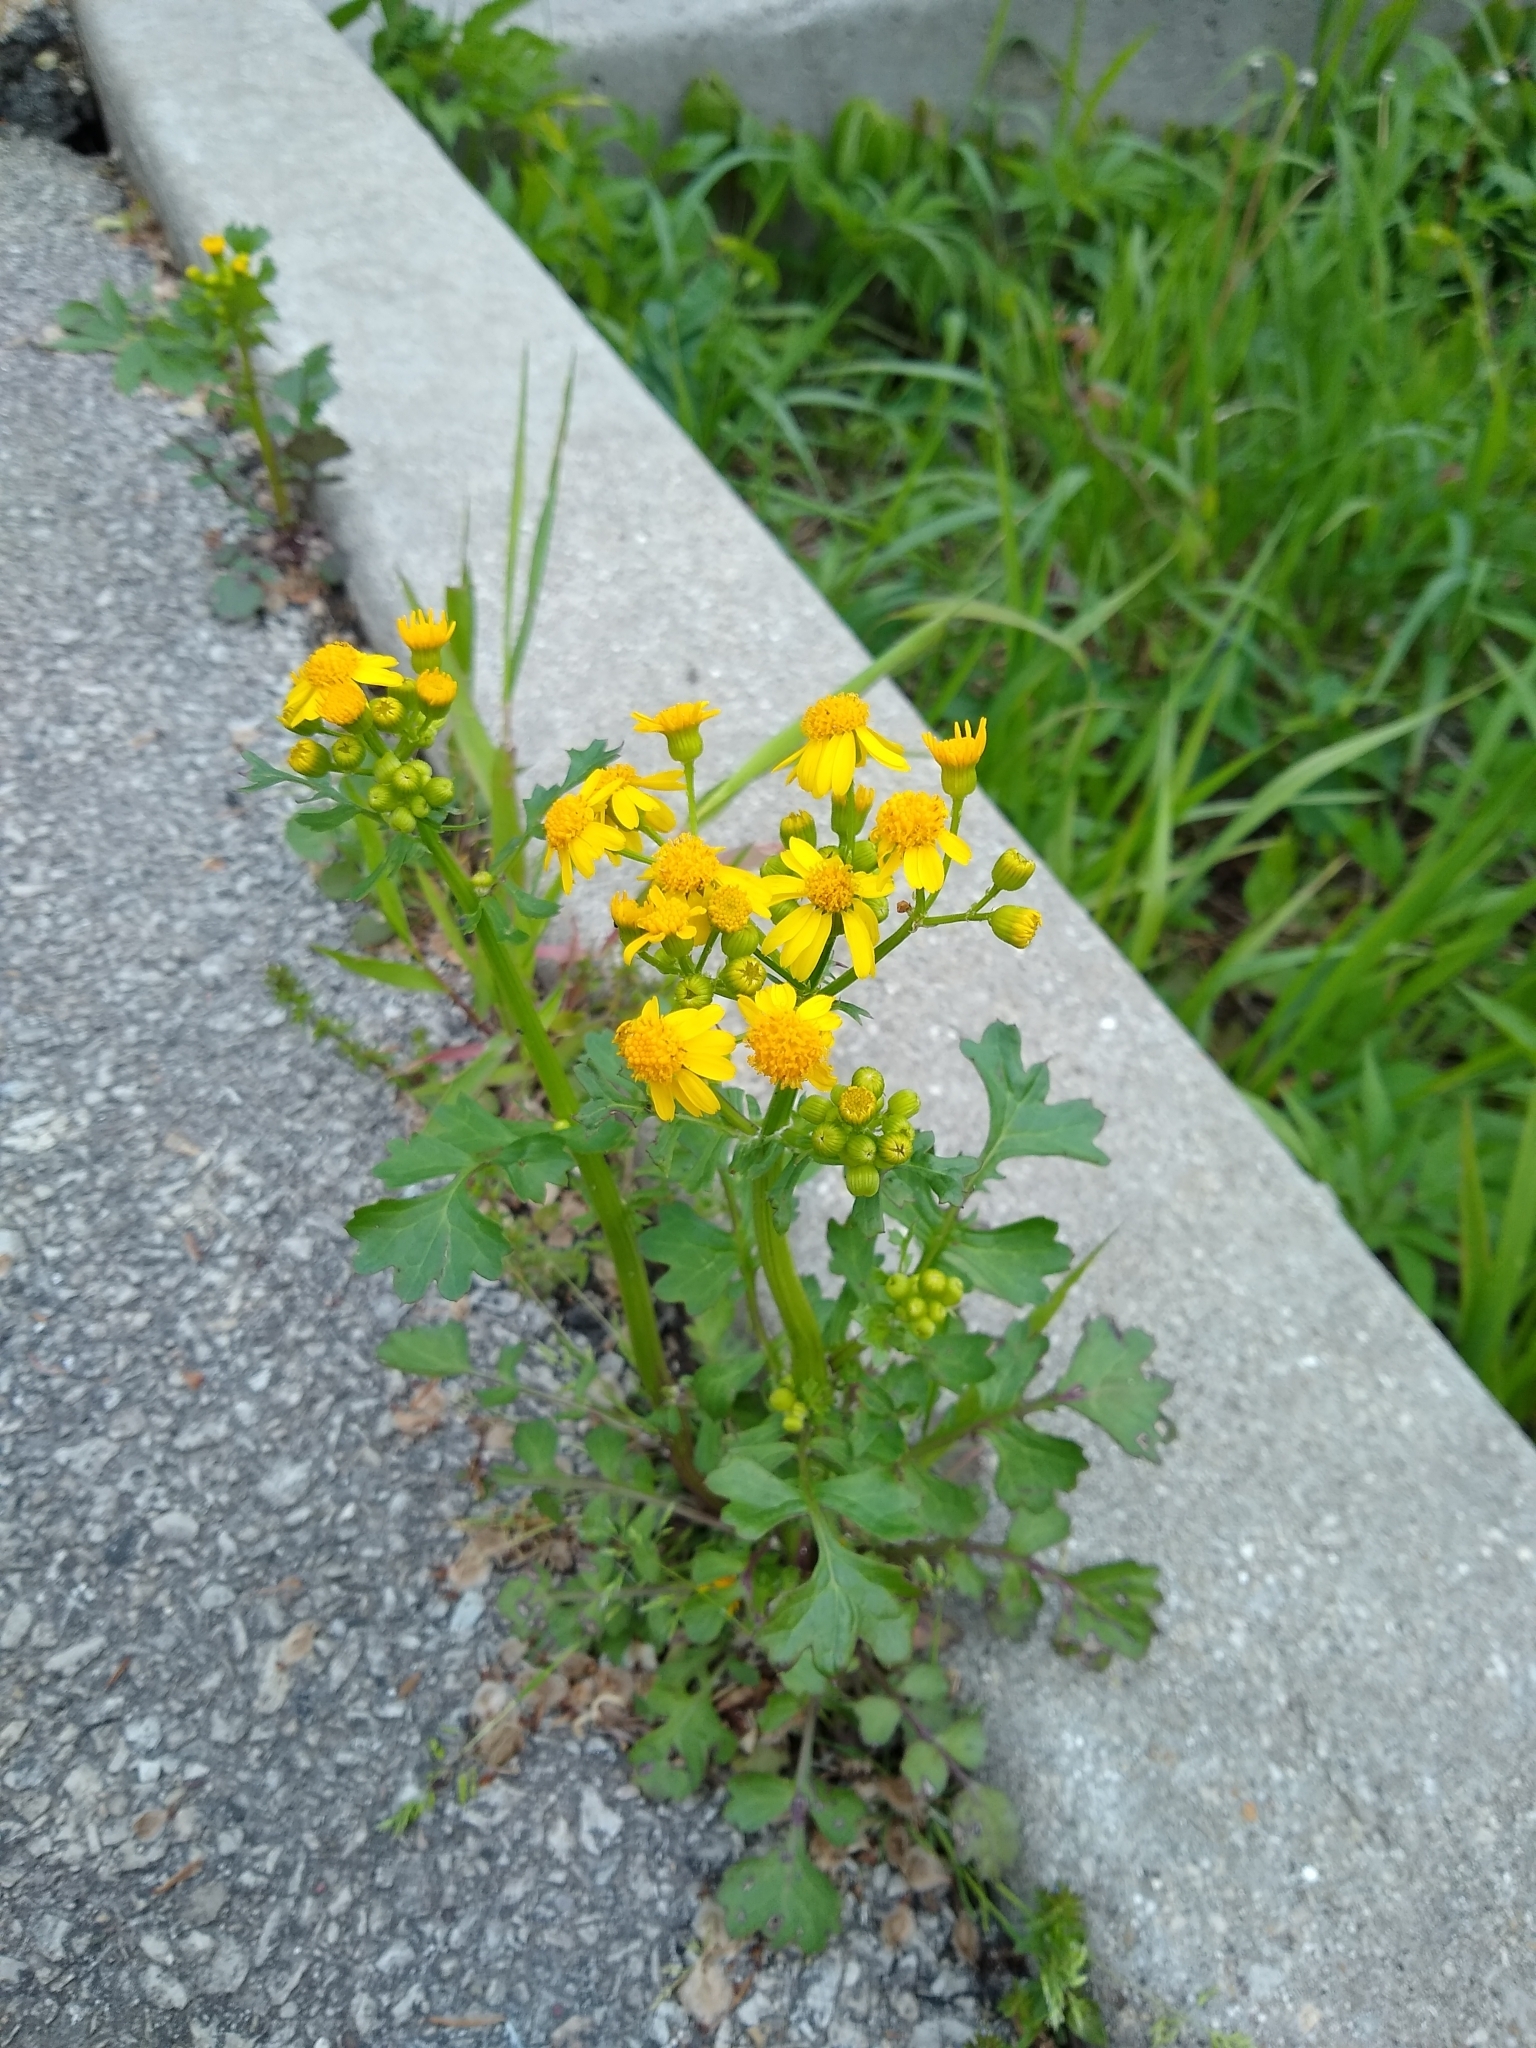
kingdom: Plantae
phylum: Tracheophyta
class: Magnoliopsida
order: Asterales
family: Asteraceae
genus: Packera
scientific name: Packera glabella
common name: Butterweed
